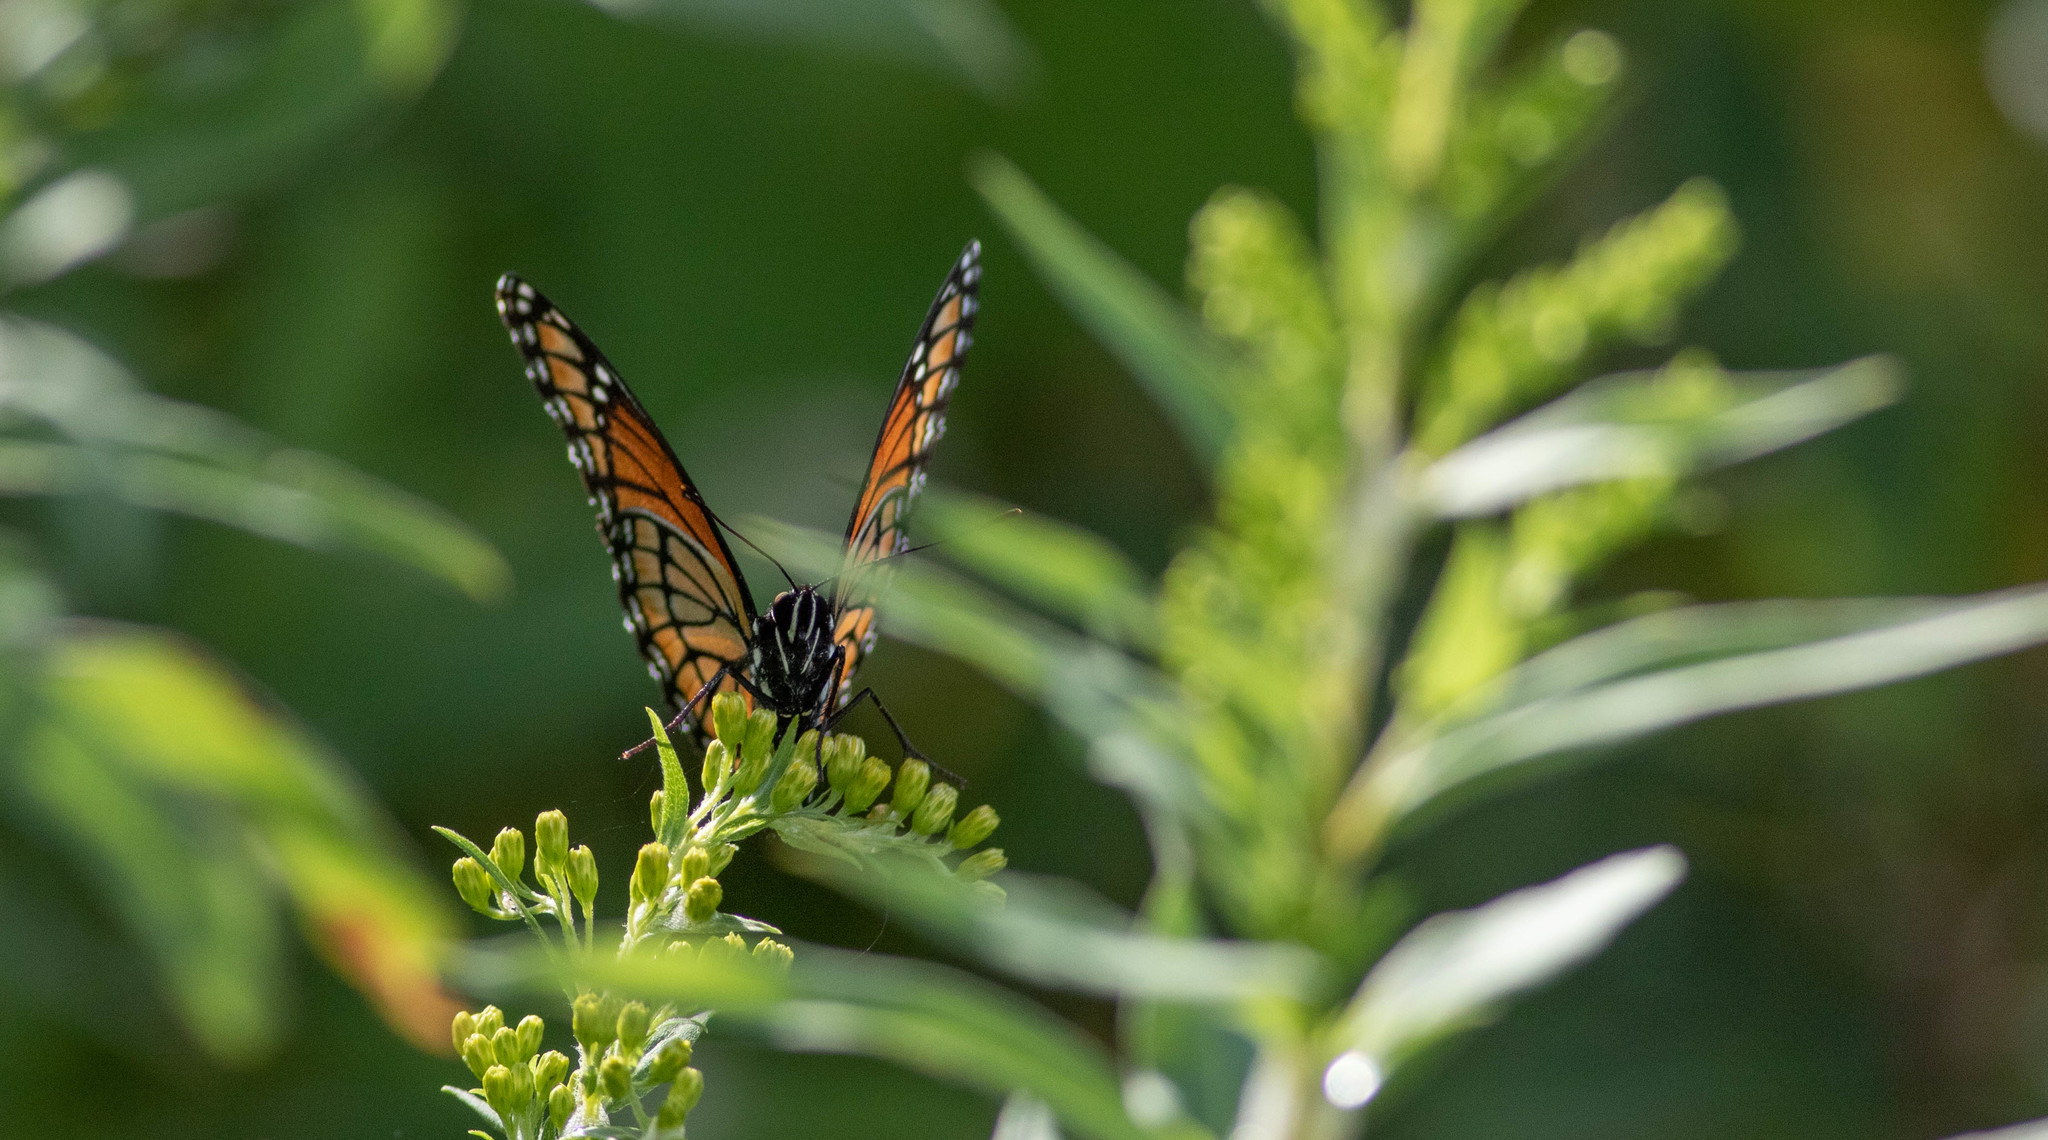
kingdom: Animalia
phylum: Arthropoda
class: Insecta
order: Lepidoptera
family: Nymphalidae
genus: Limenitis
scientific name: Limenitis archippus
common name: Viceroy
